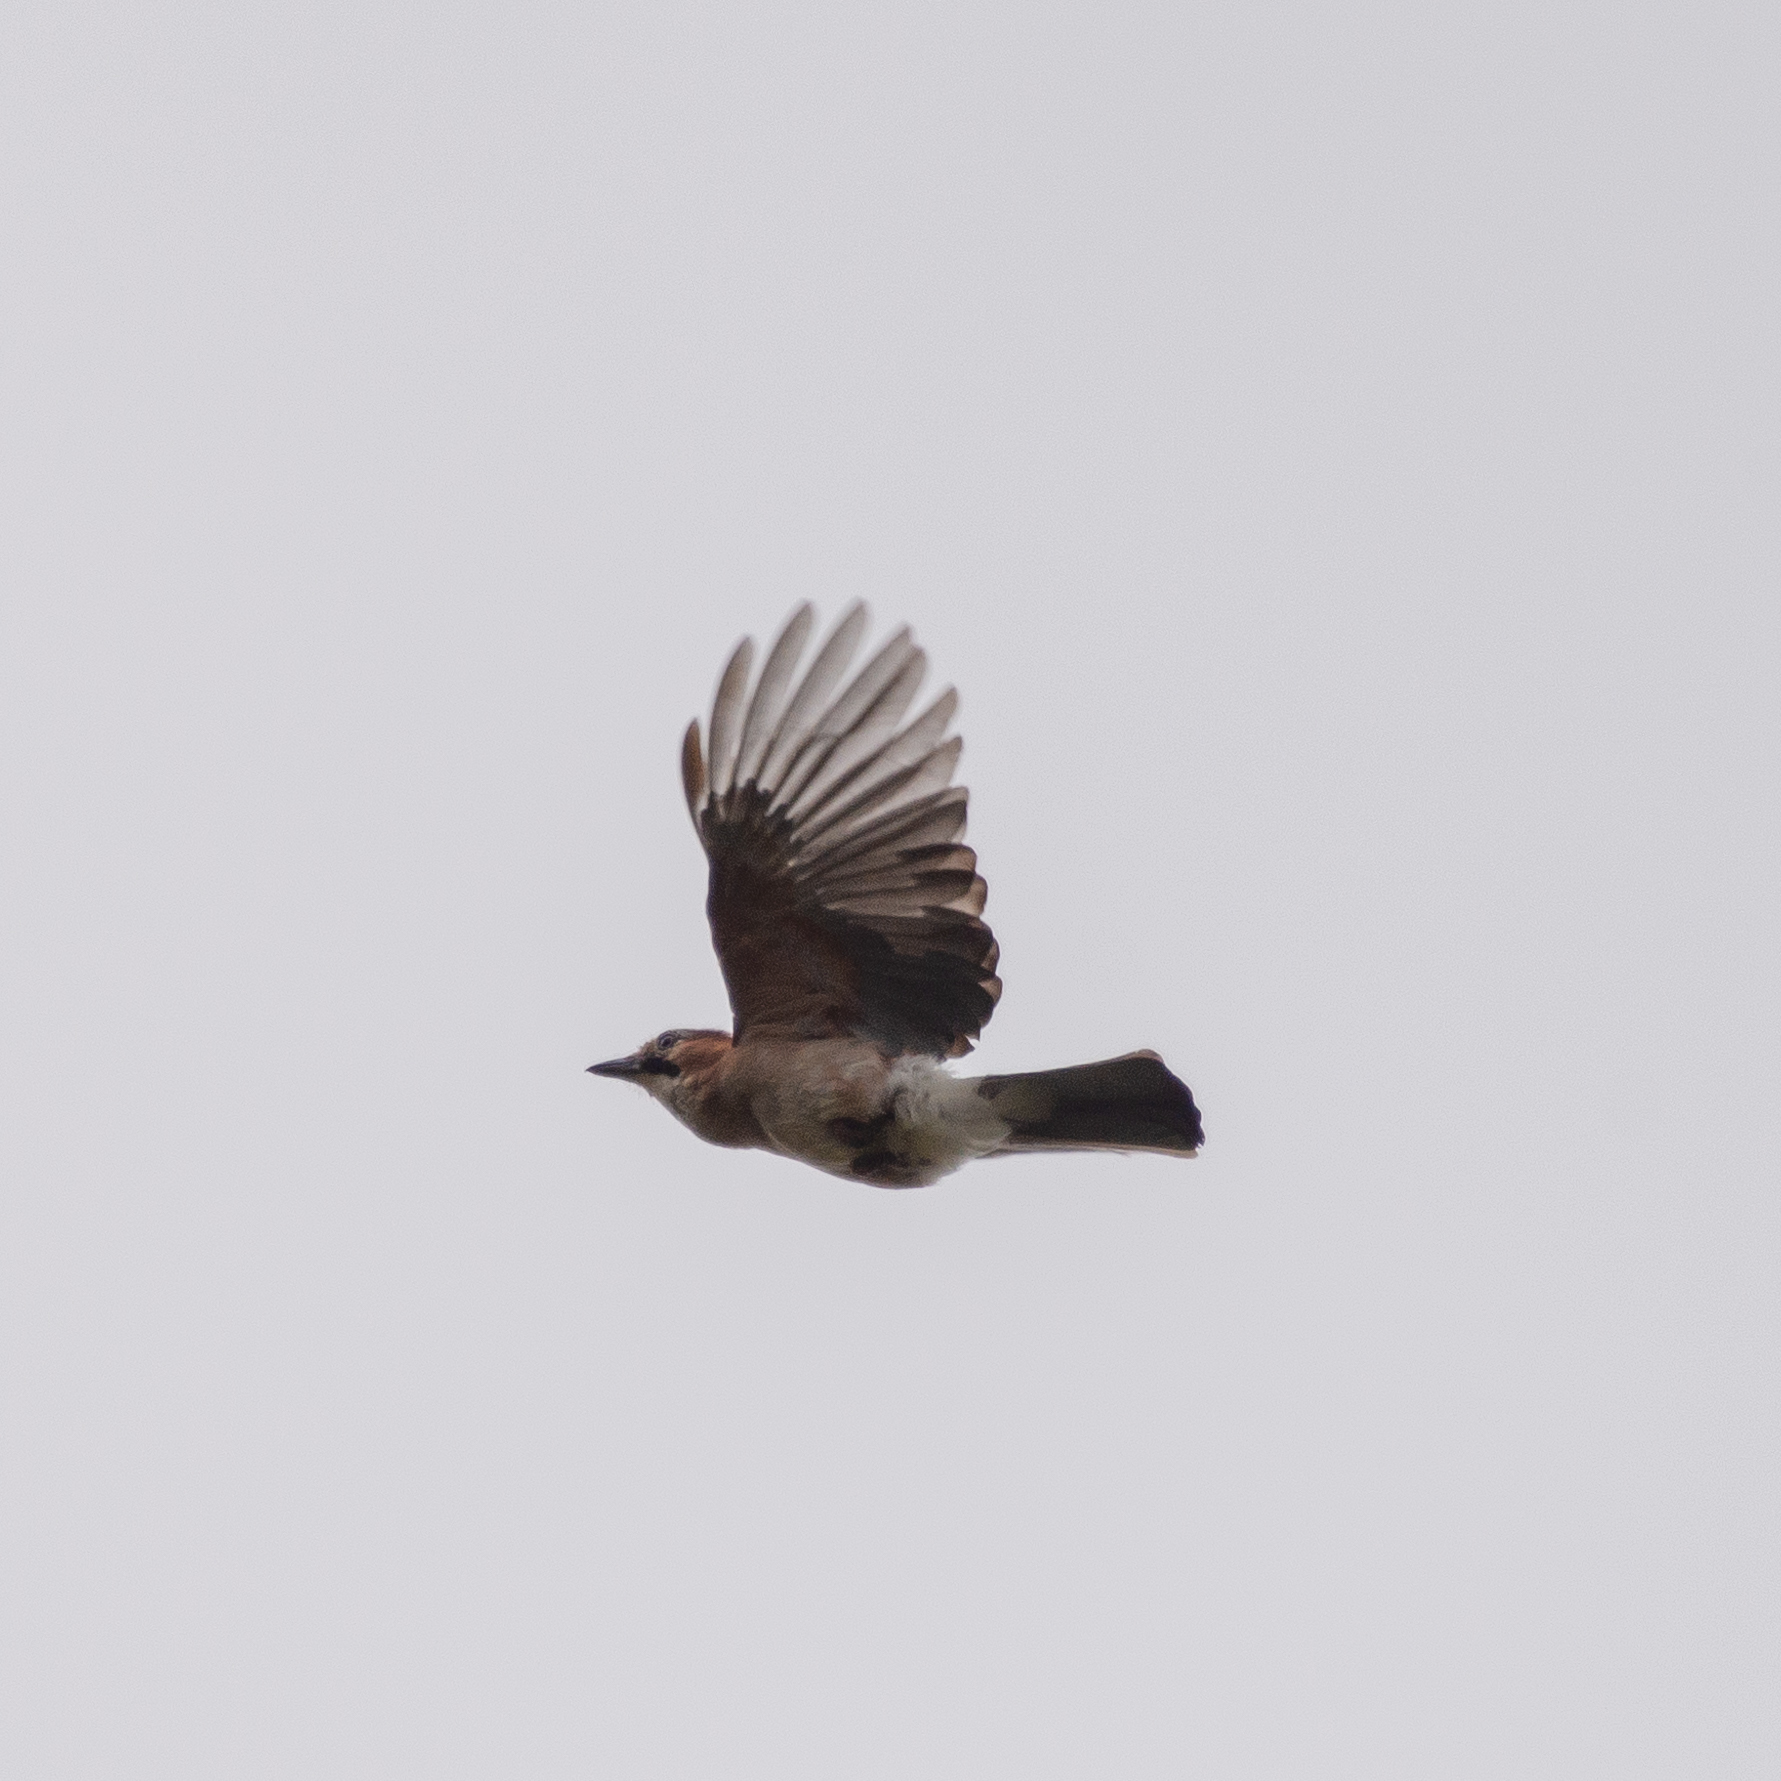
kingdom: Animalia
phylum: Chordata
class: Aves
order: Passeriformes
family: Corvidae
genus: Garrulus
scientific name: Garrulus glandarius
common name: Eurasian jay
